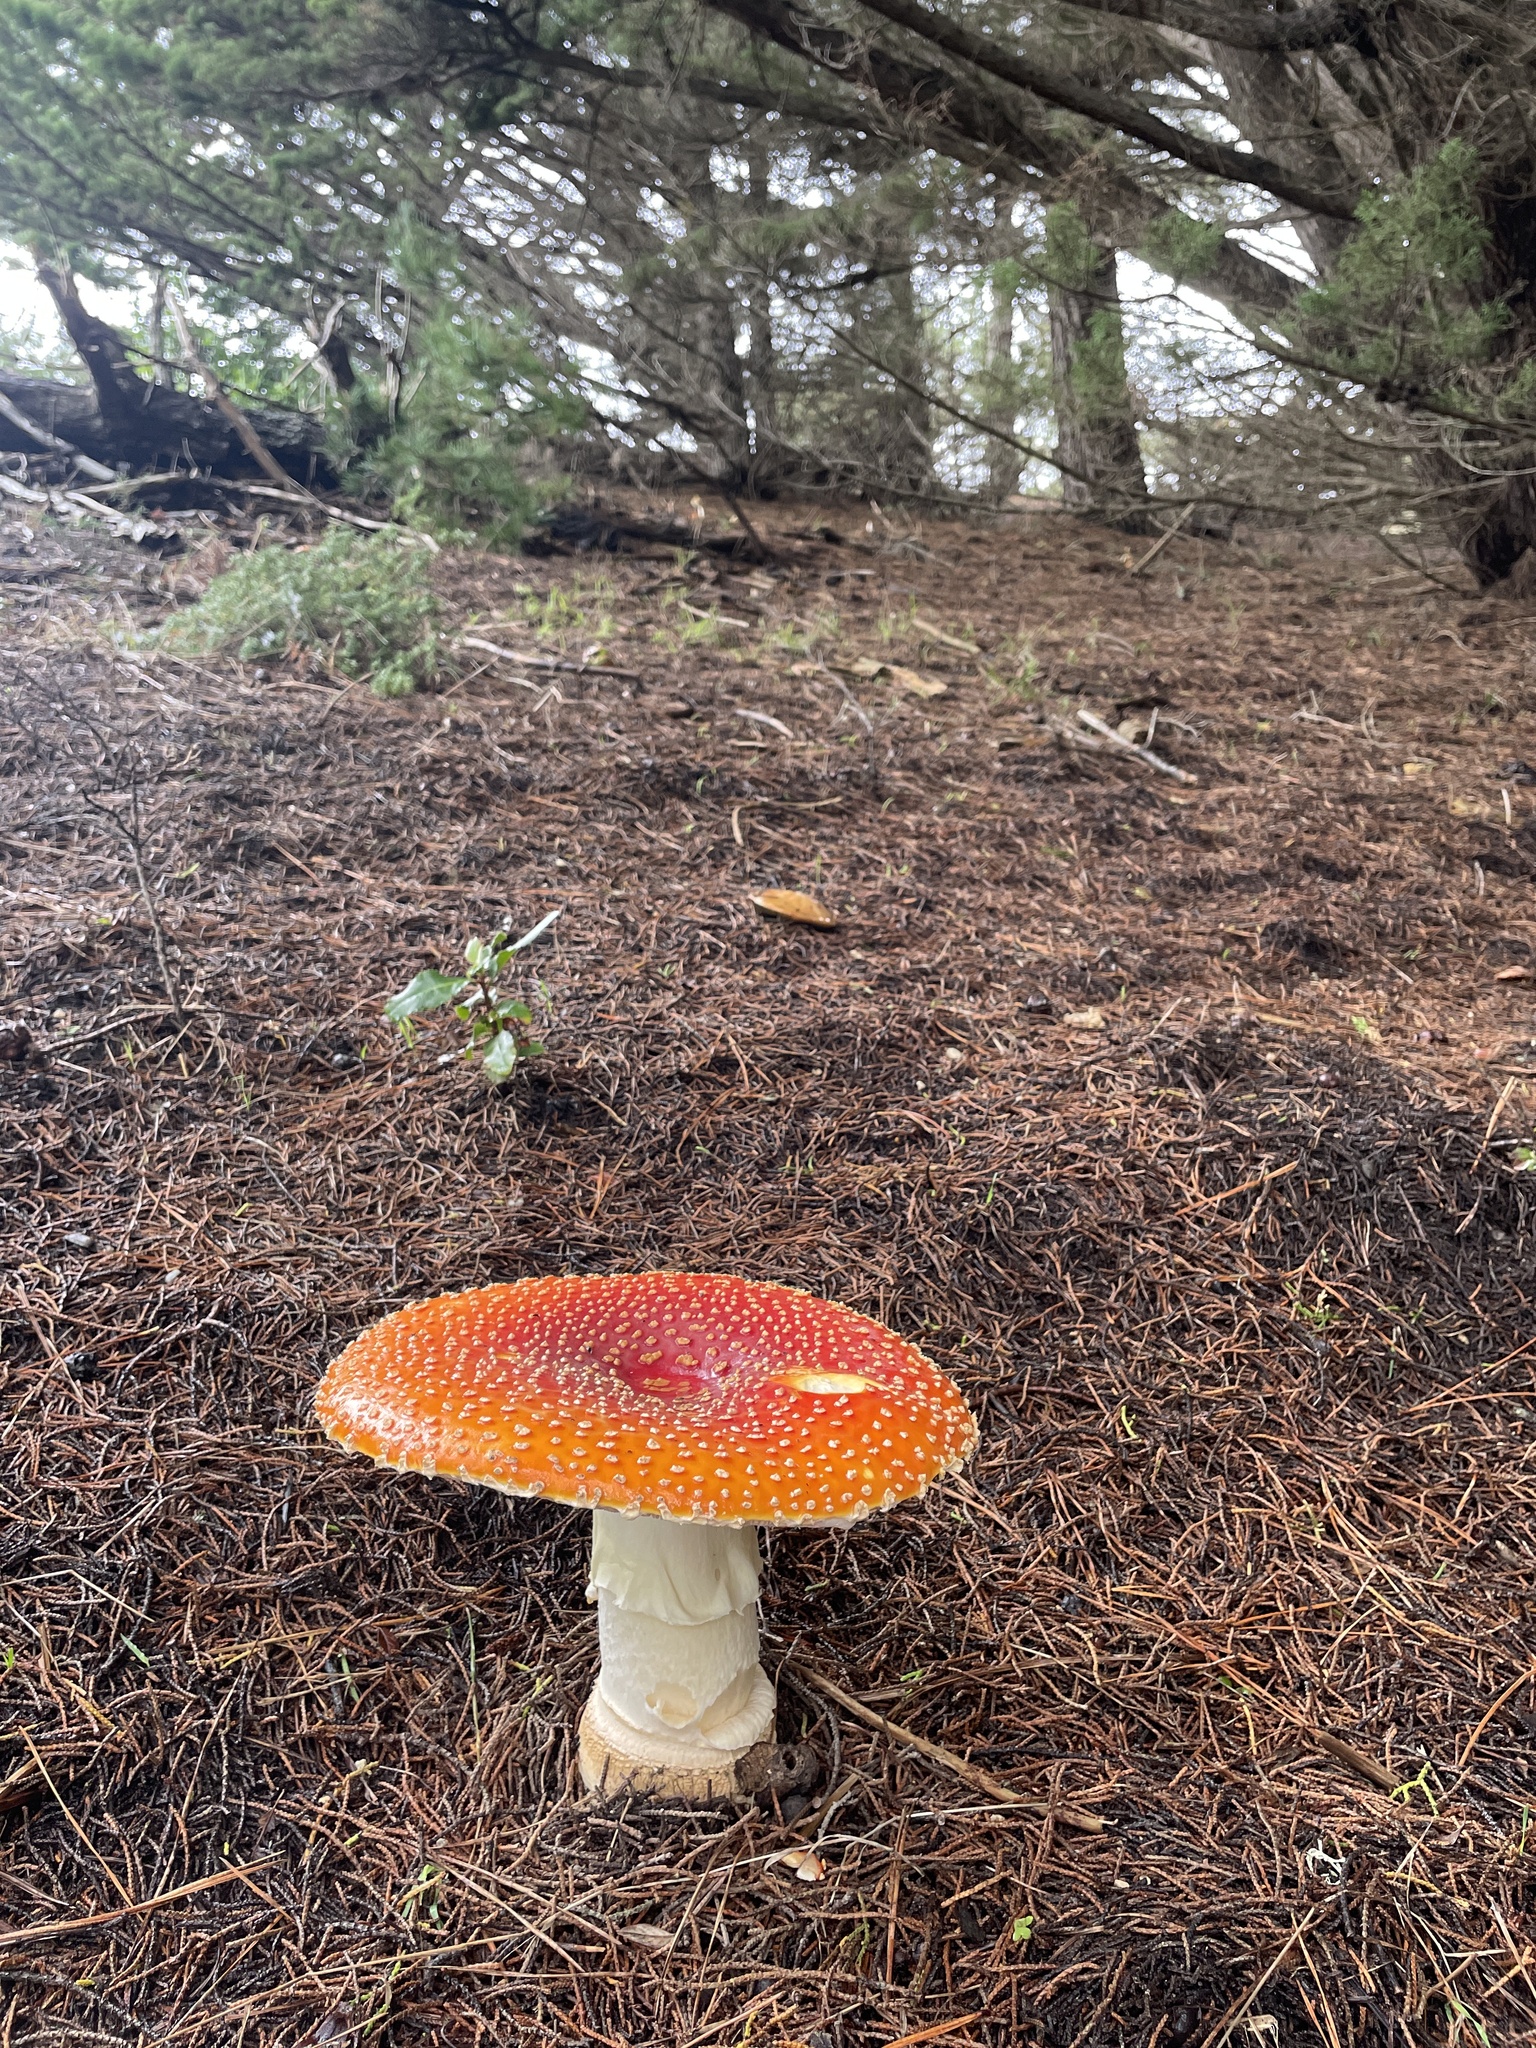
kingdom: Fungi
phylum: Basidiomycota
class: Agaricomycetes
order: Agaricales
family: Amanitaceae
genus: Amanita
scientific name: Amanita muscaria
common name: Fly agaric
